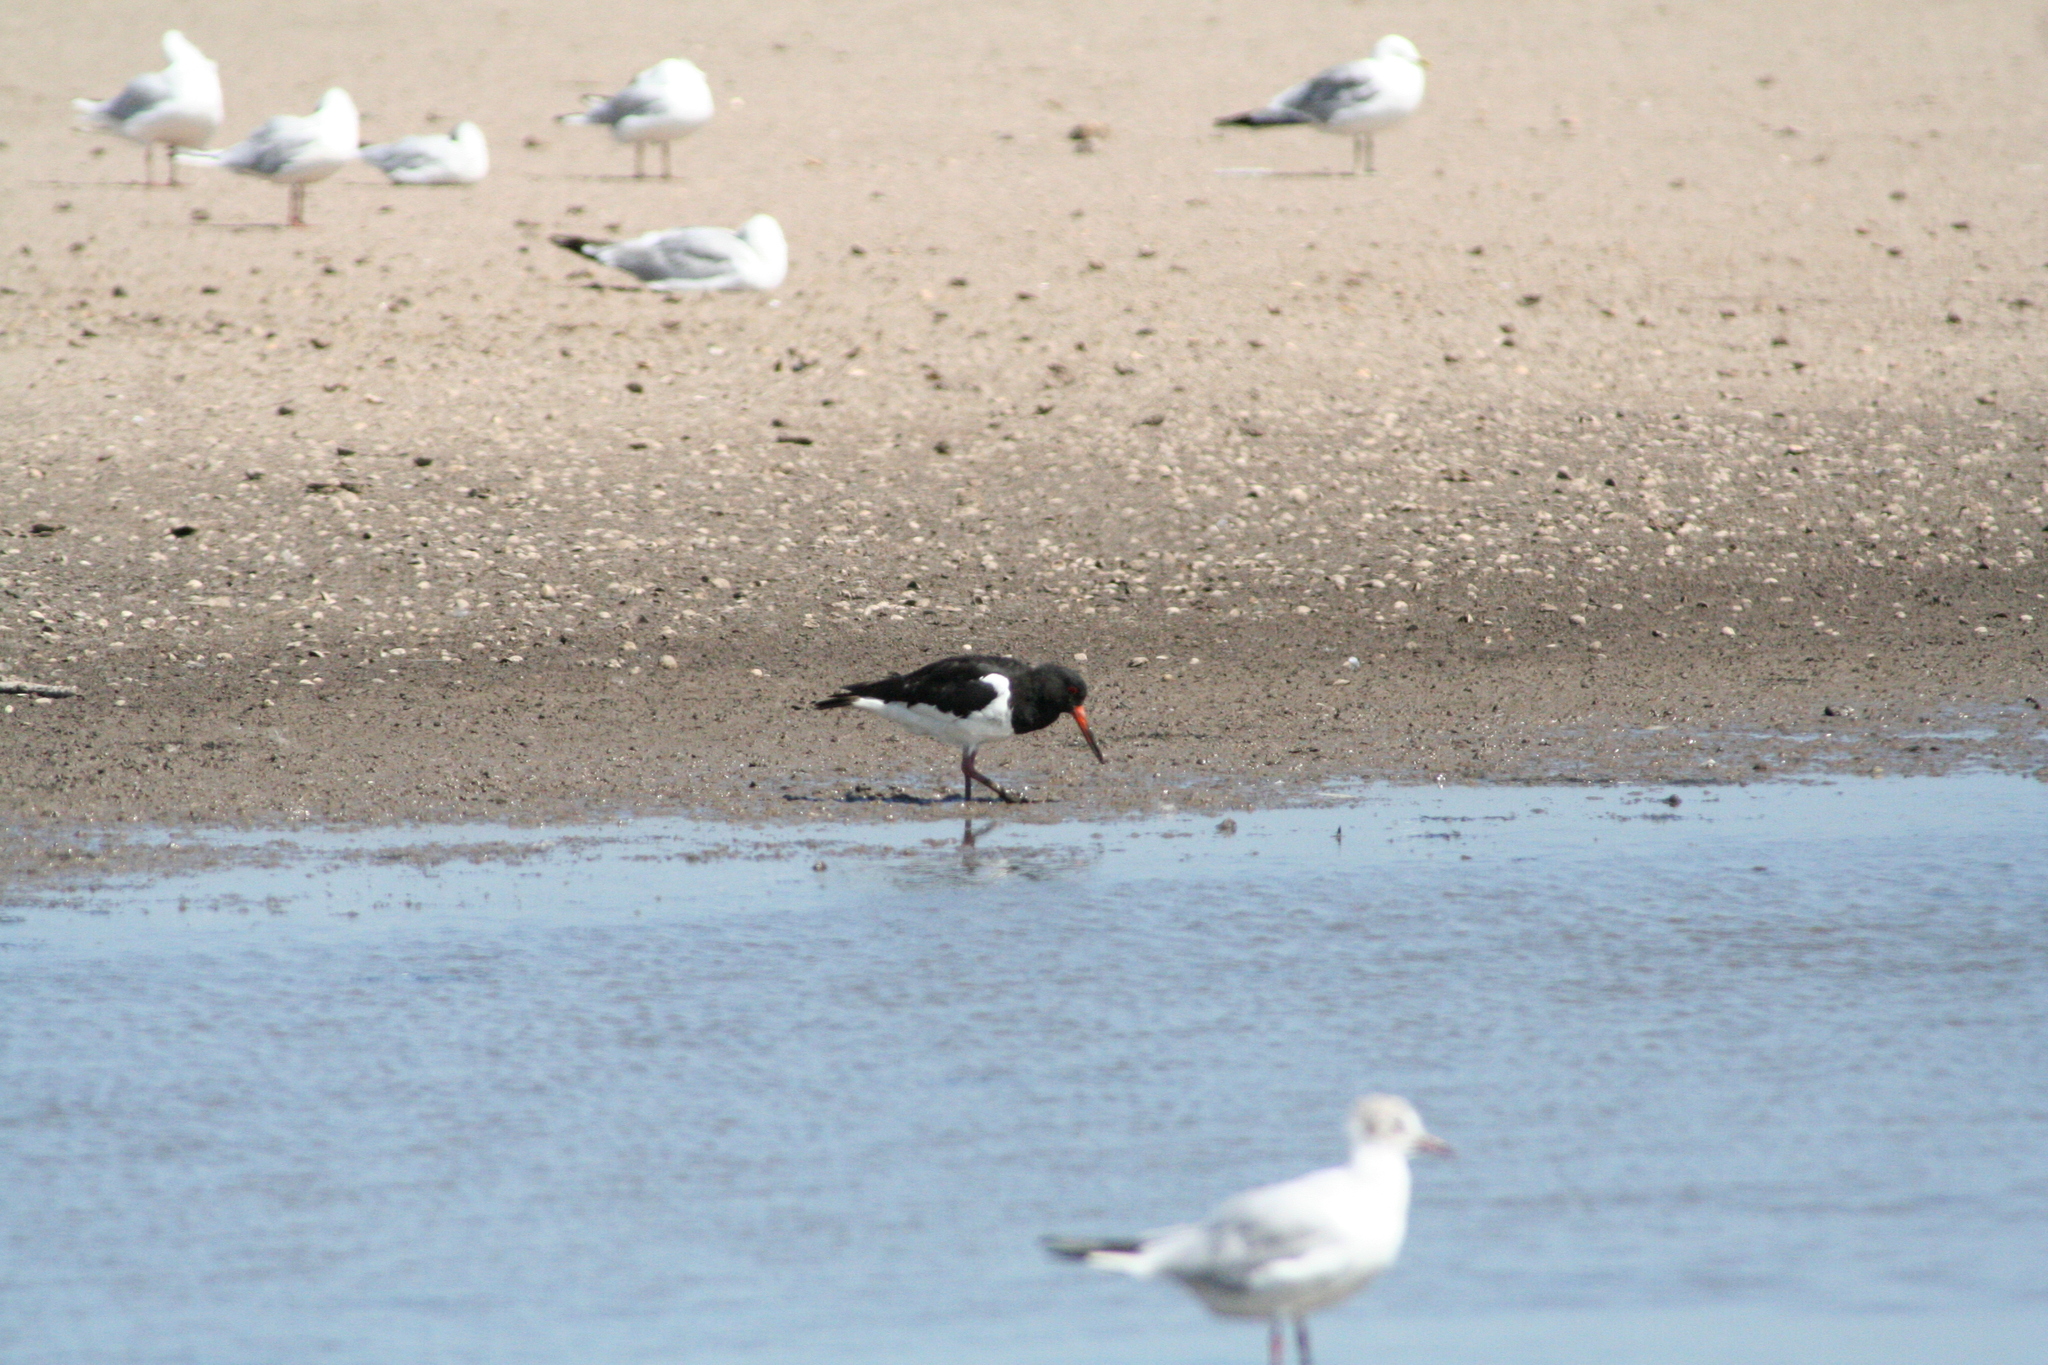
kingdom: Animalia
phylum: Chordata
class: Aves
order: Charadriiformes
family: Haematopodidae
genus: Haematopus
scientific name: Haematopus ostralegus
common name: Eurasian oystercatcher
